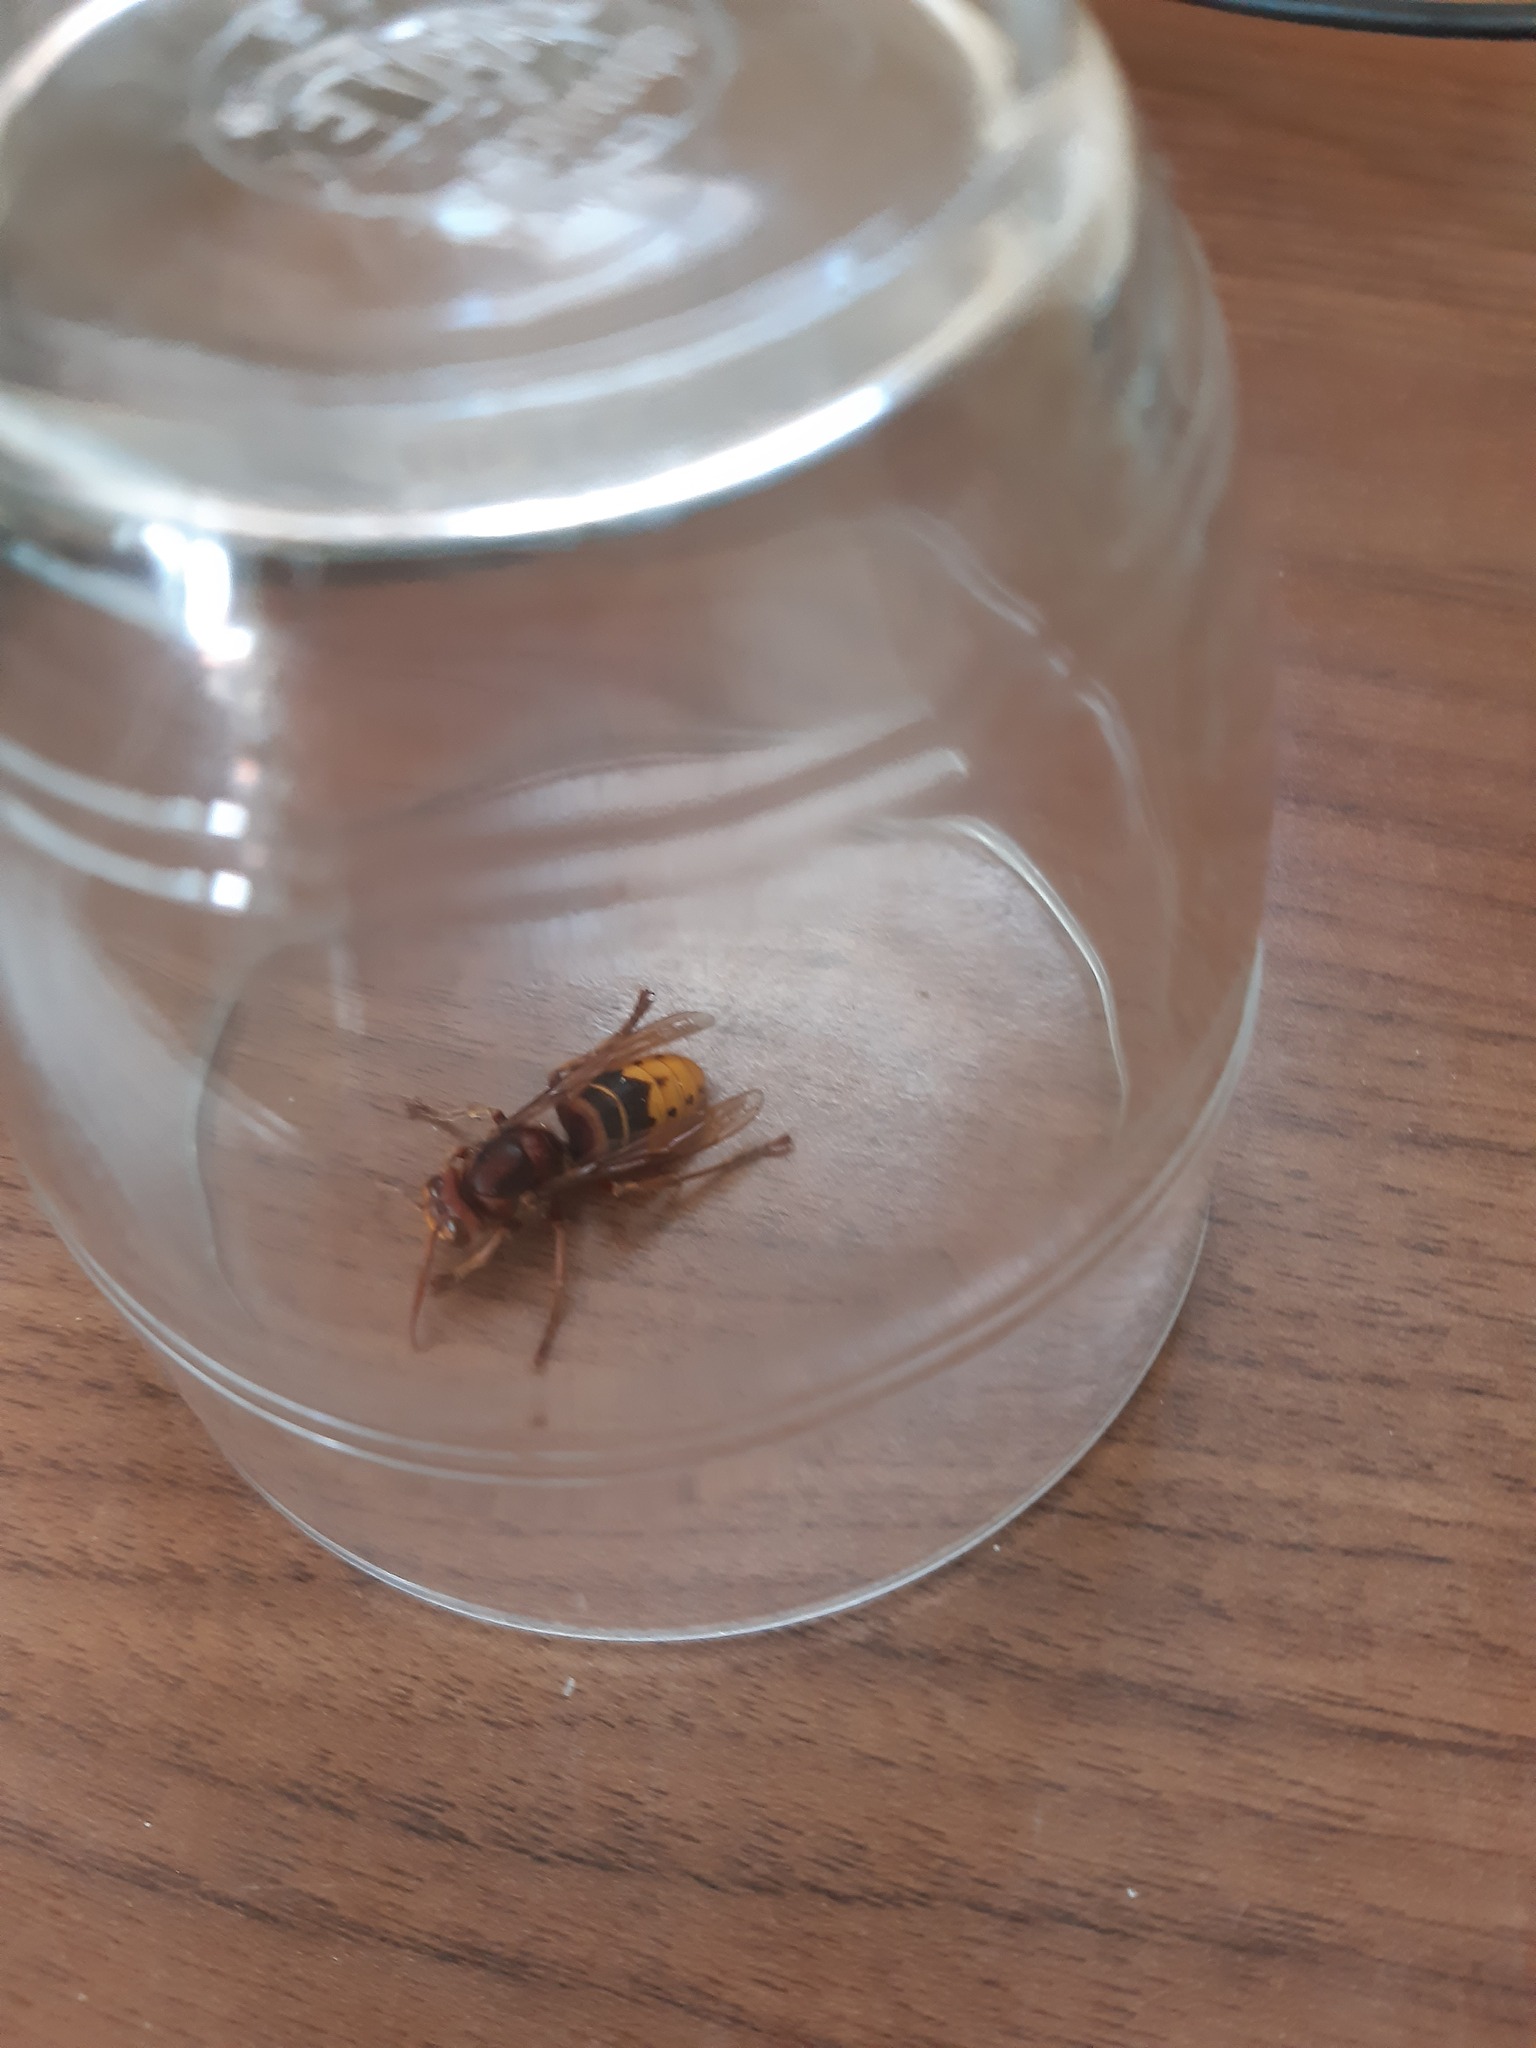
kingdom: Animalia
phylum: Arthropoda
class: Insecta
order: Hymenoptera
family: Vespidae
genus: Vespa
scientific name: Vespa crabro
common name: Hornet
